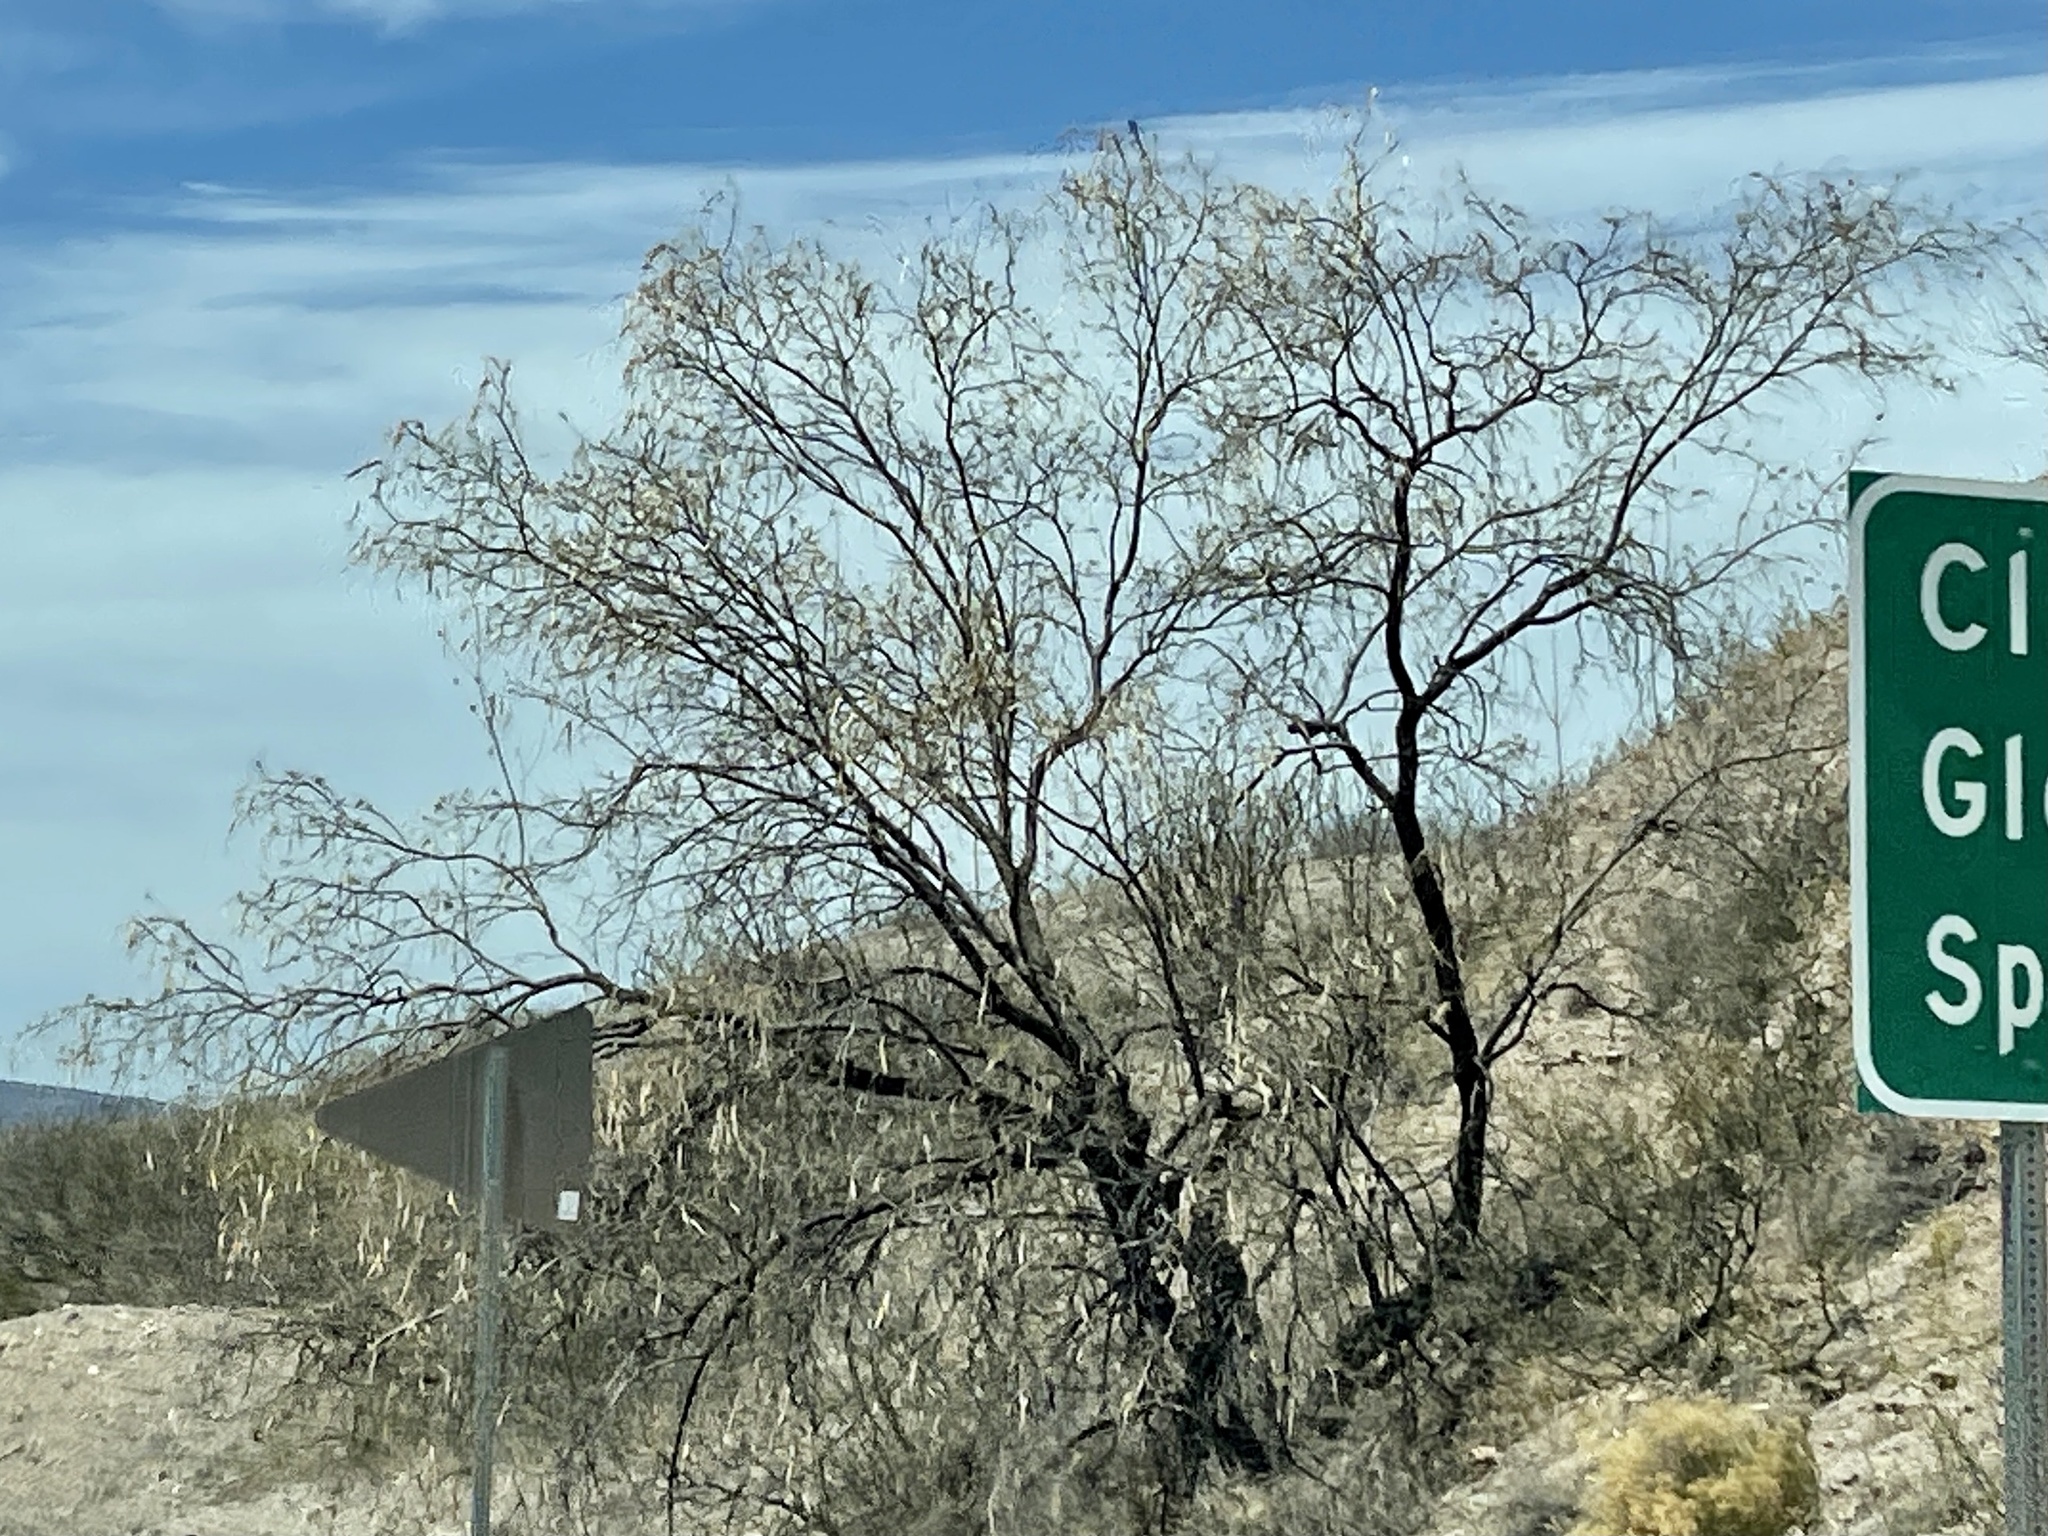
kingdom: Plantae
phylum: Tracheophyta
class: Magnoliopsida
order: Lamiales
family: Bignoniaceae
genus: Chilopsis
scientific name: Chilopsis linearis
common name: Desert-willow
